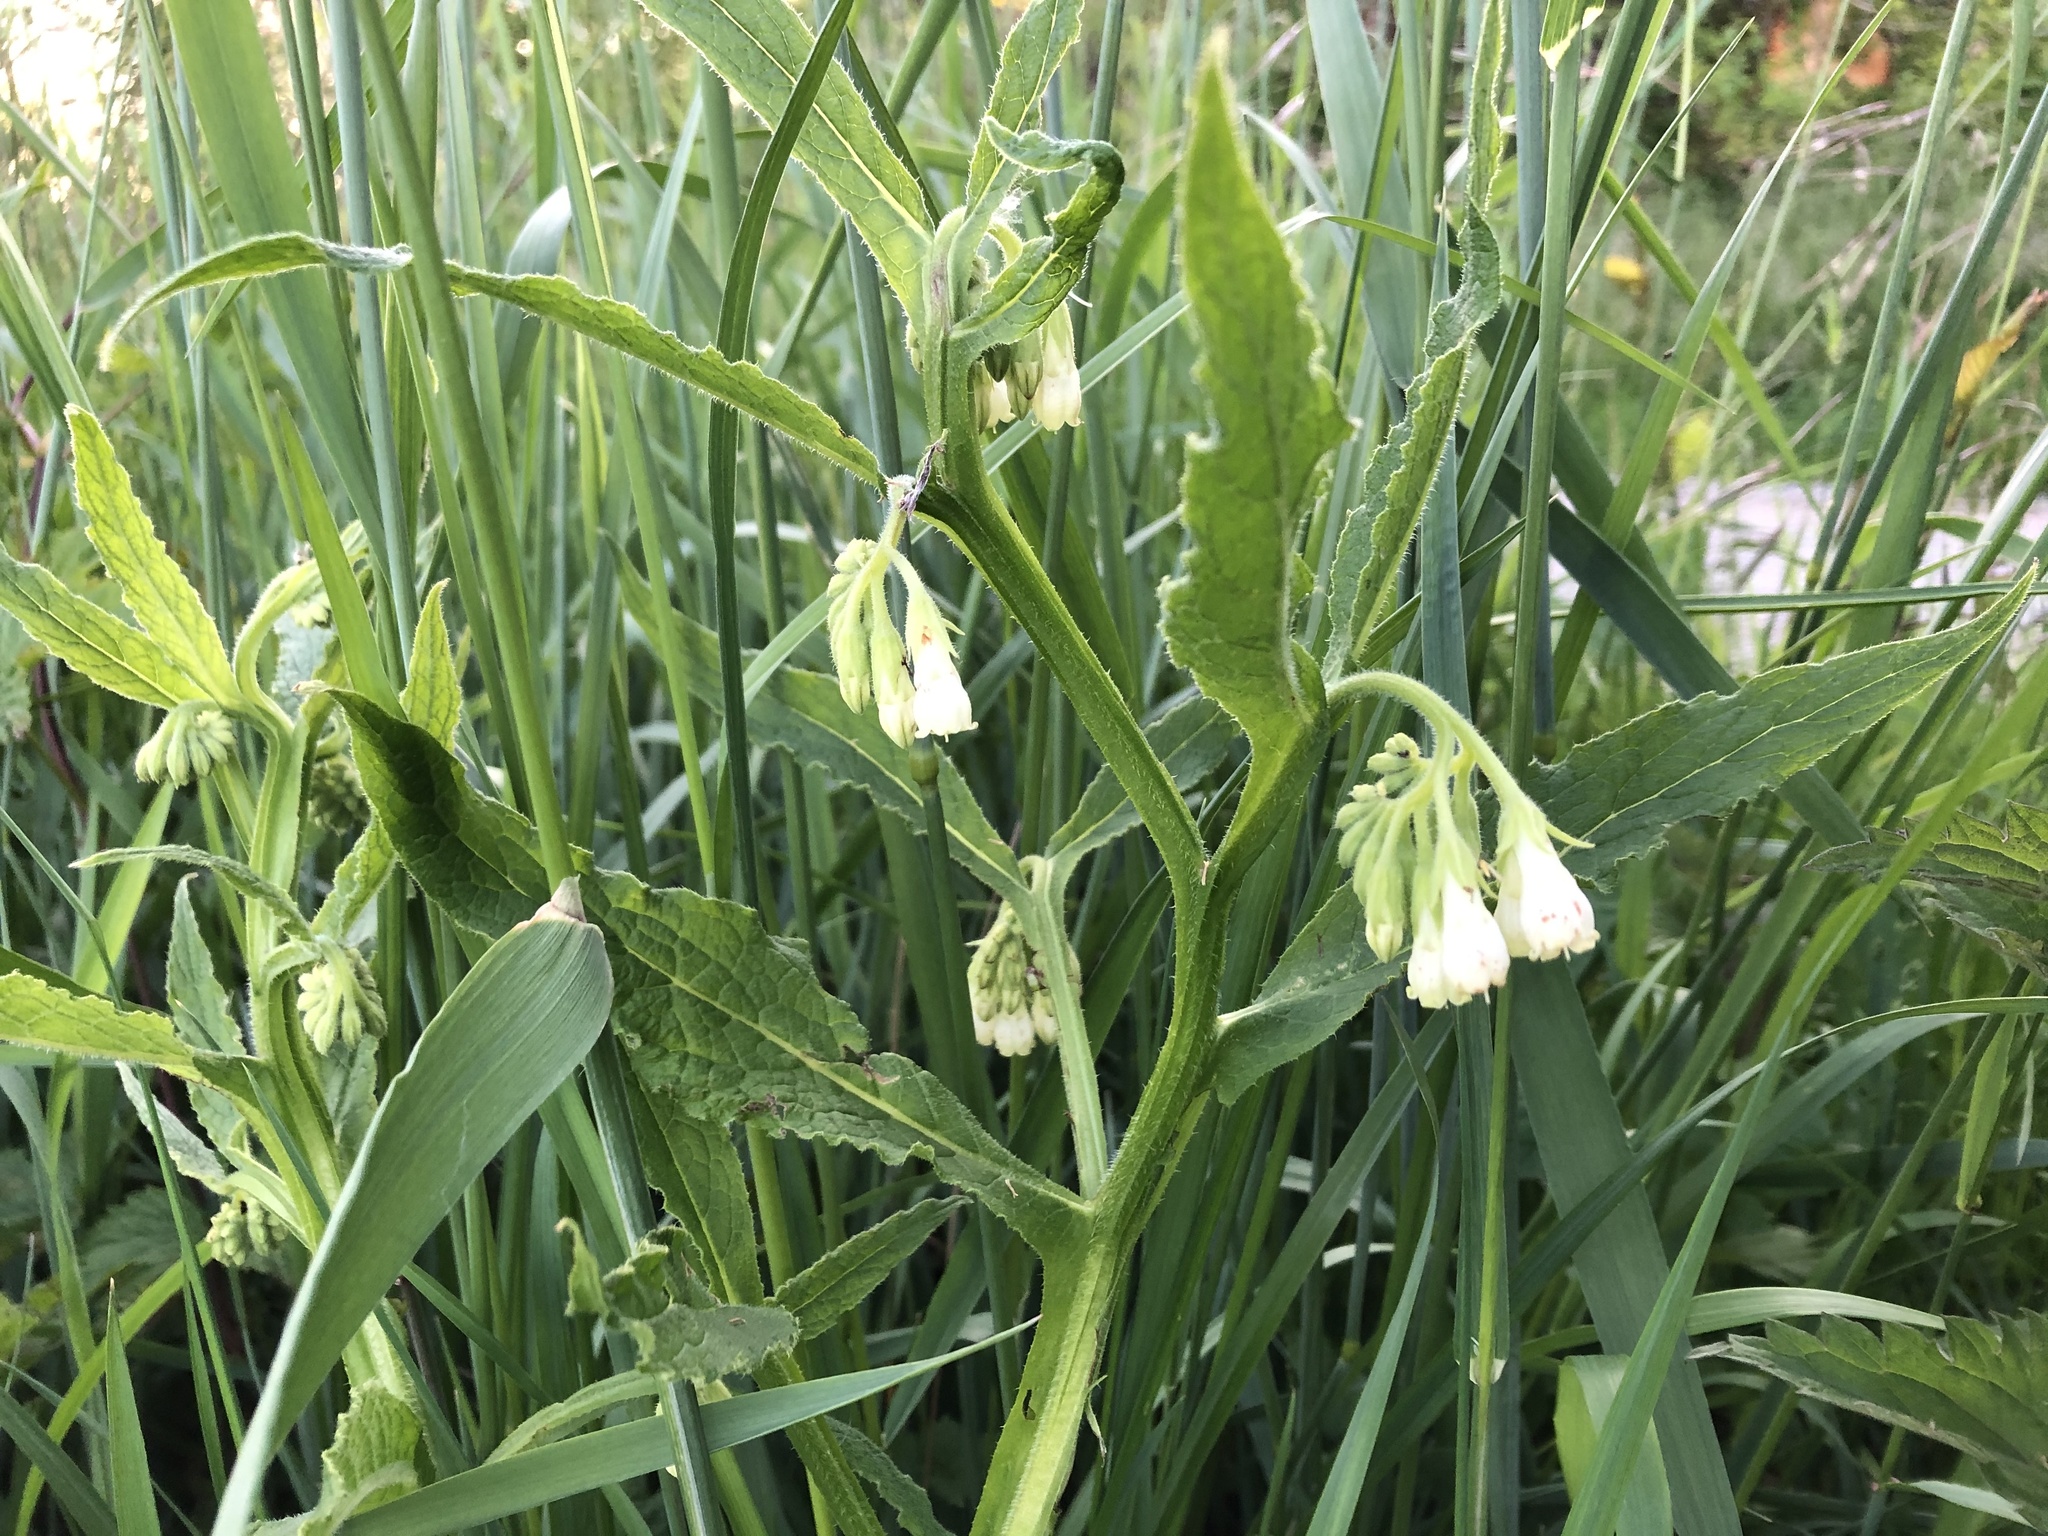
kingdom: Plantae
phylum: Tracheophyta
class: Magnoliopsida
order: Boraginales
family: Boraginaceae
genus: Symphytum
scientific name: Symphytum officinale
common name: Common comfrey
